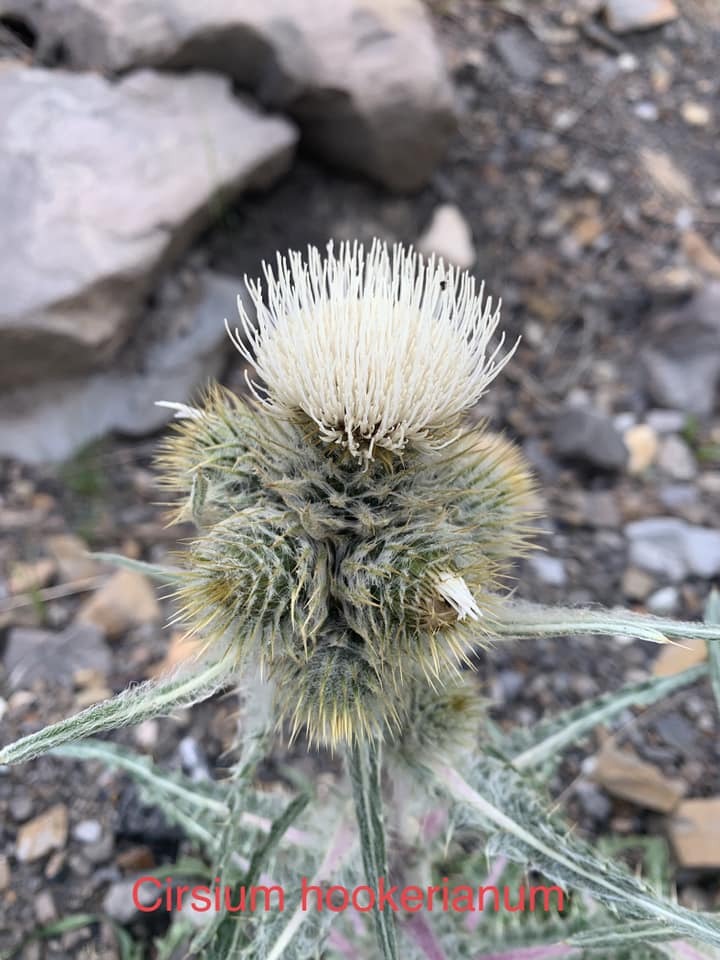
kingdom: Plantae
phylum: Tracheophyta
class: Magnoliopsida
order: Asterales
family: Asteraceae
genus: Cirsium
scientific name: Cirsium hookerianum
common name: Hooker's thistle
